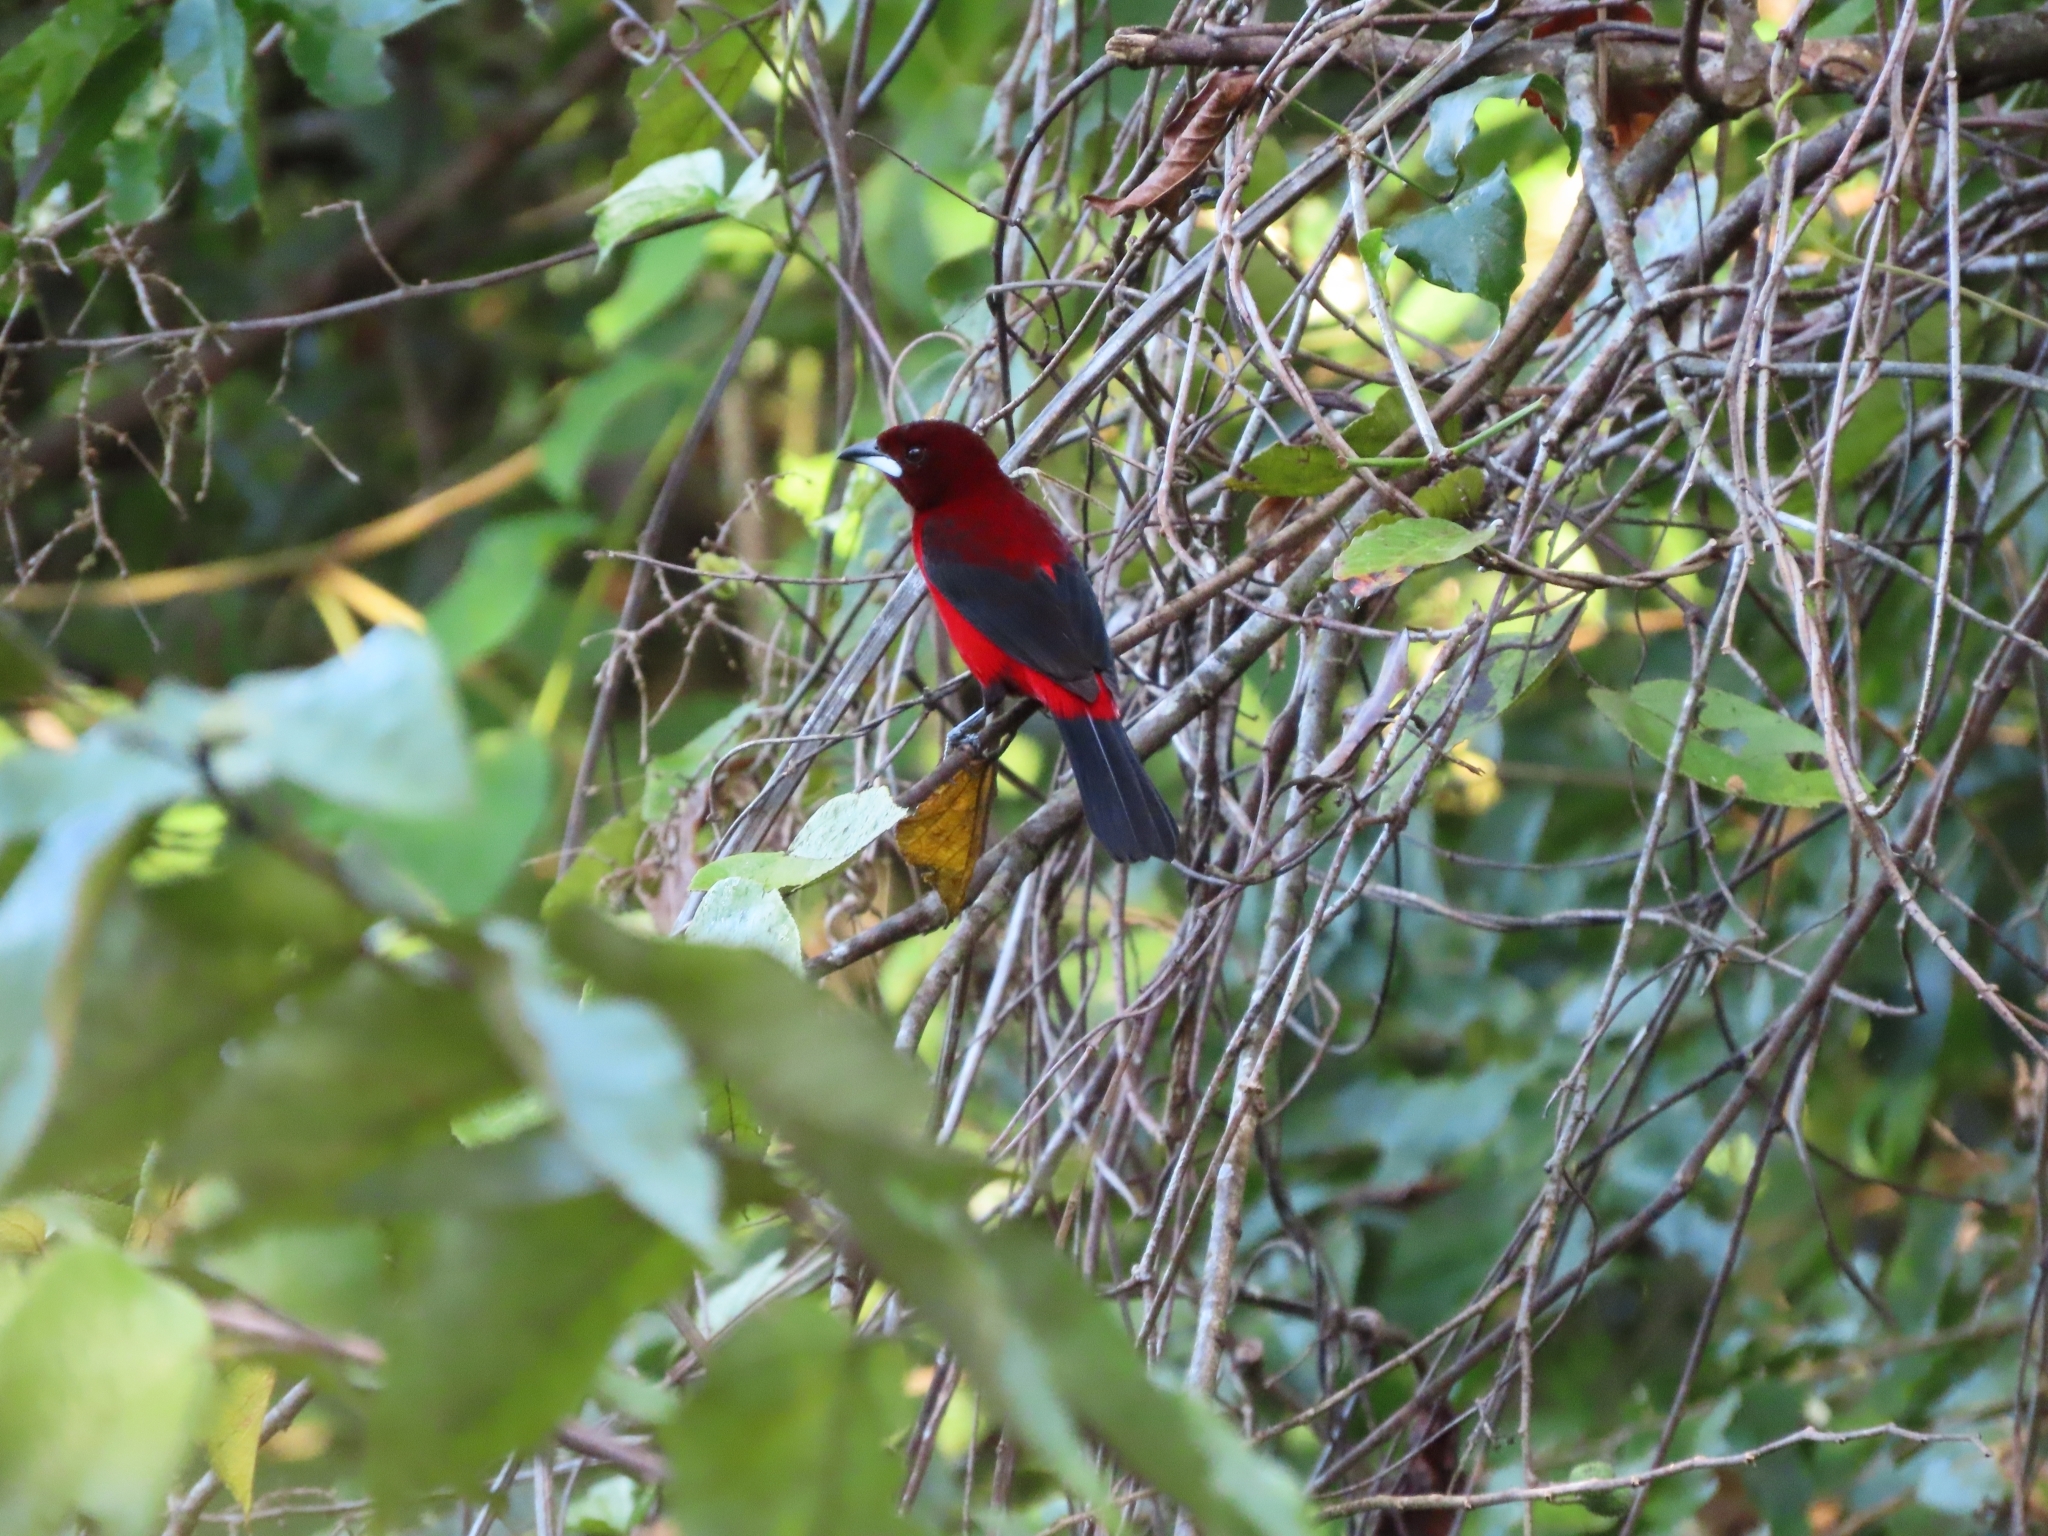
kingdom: Animalia
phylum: Chordata
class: Aves
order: Passeriformes
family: Thraupidae
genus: Ramphocelus
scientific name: Ramphocelus dimidiatus
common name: Crimson-backed tanager
